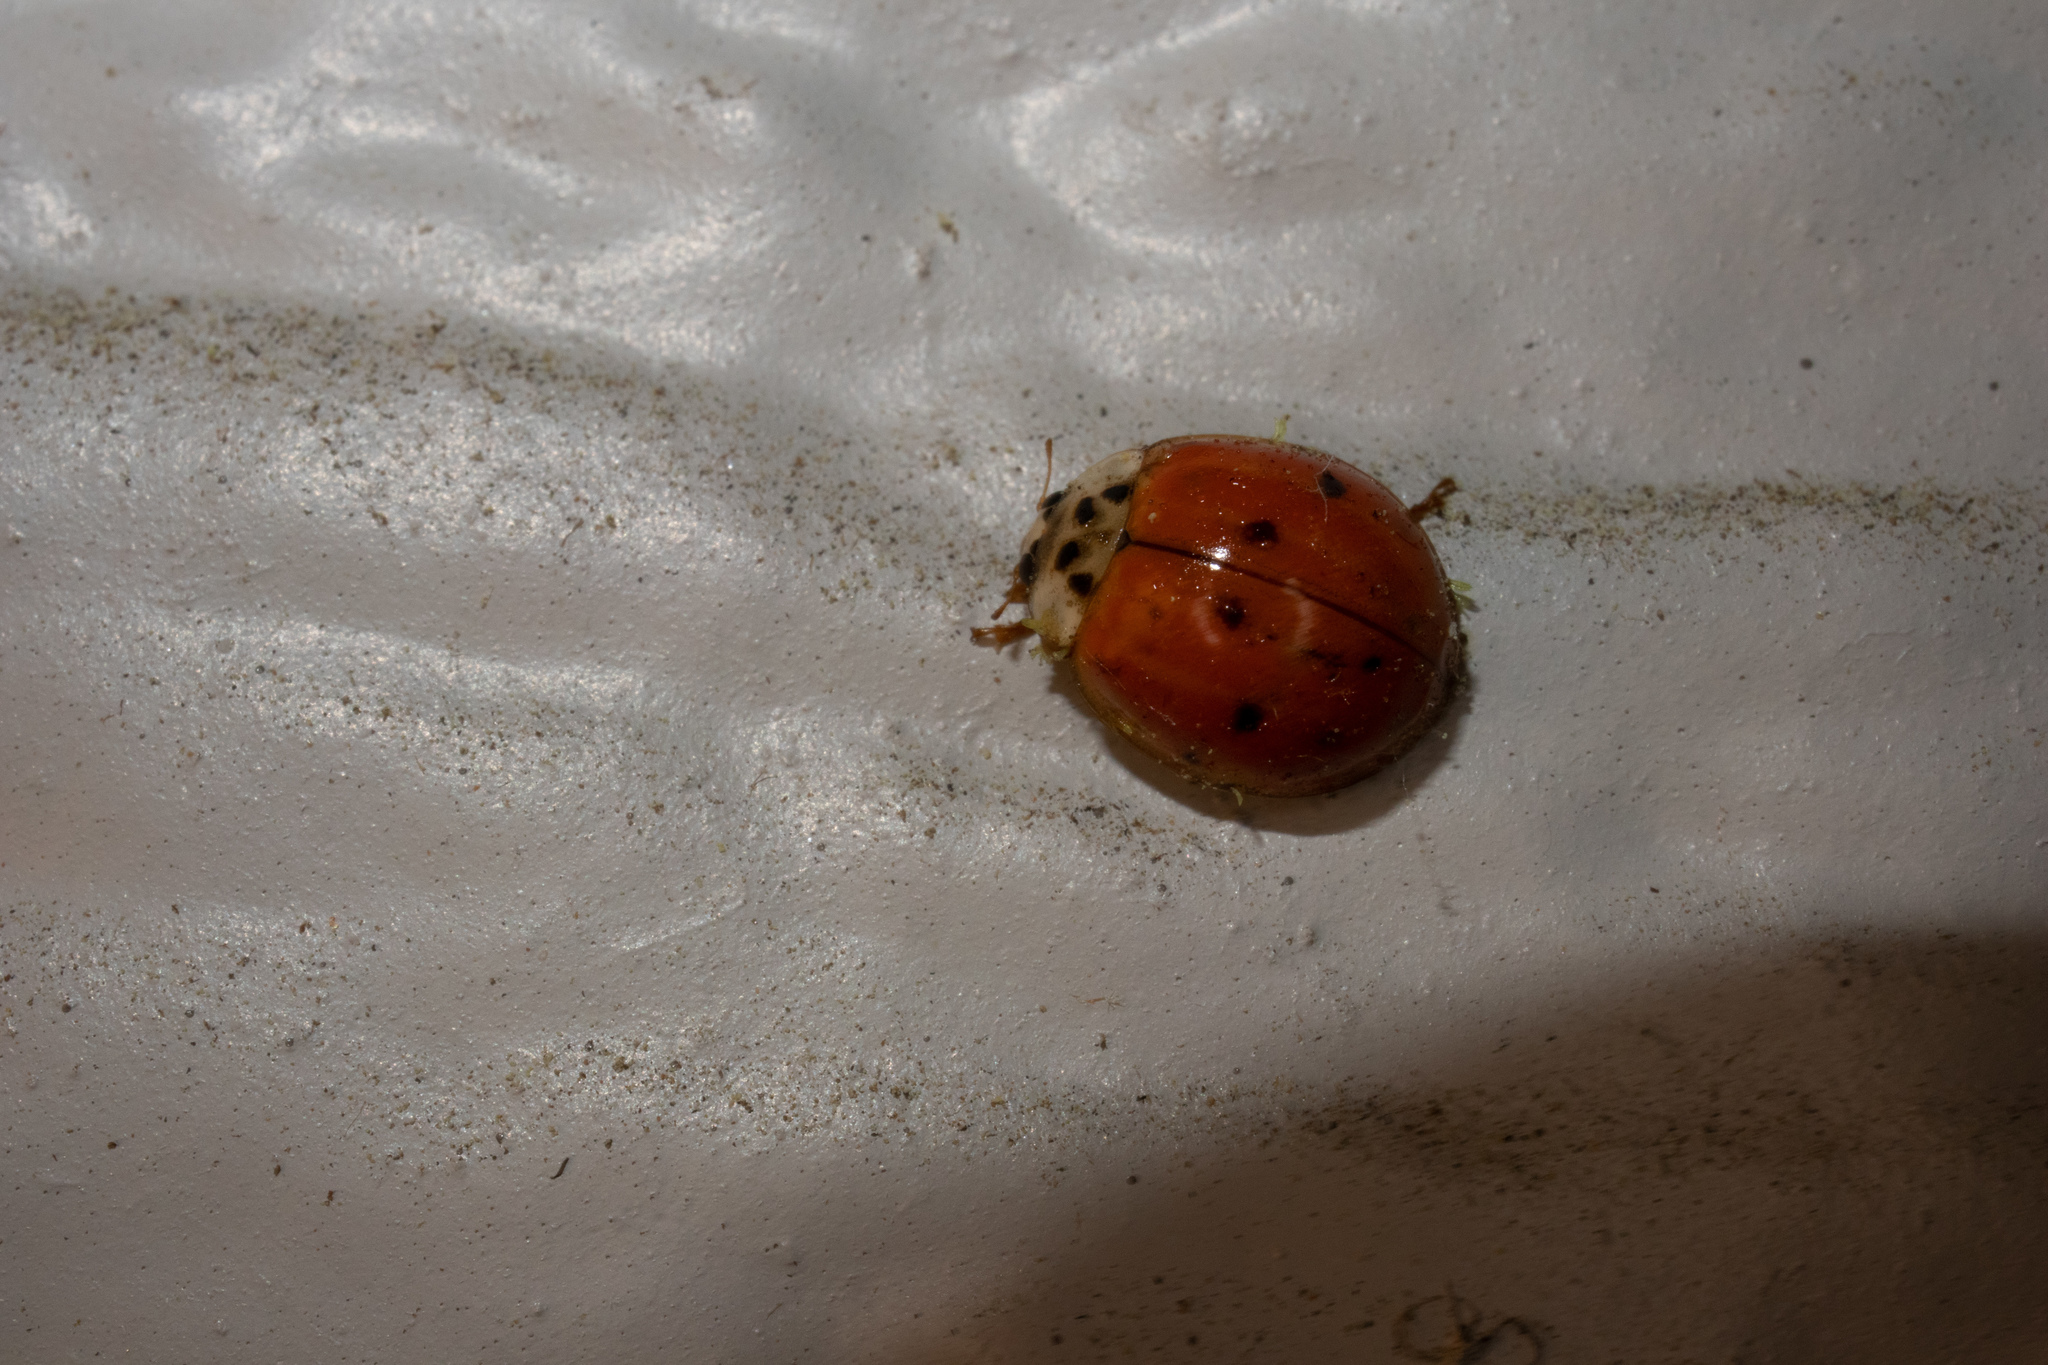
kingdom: Animalia
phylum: Arthropoda
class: Insecta
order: Coleoptera
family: Coccinellidae
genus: Harmonia
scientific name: Harmonia axyridis
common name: Harlequin ladybird
